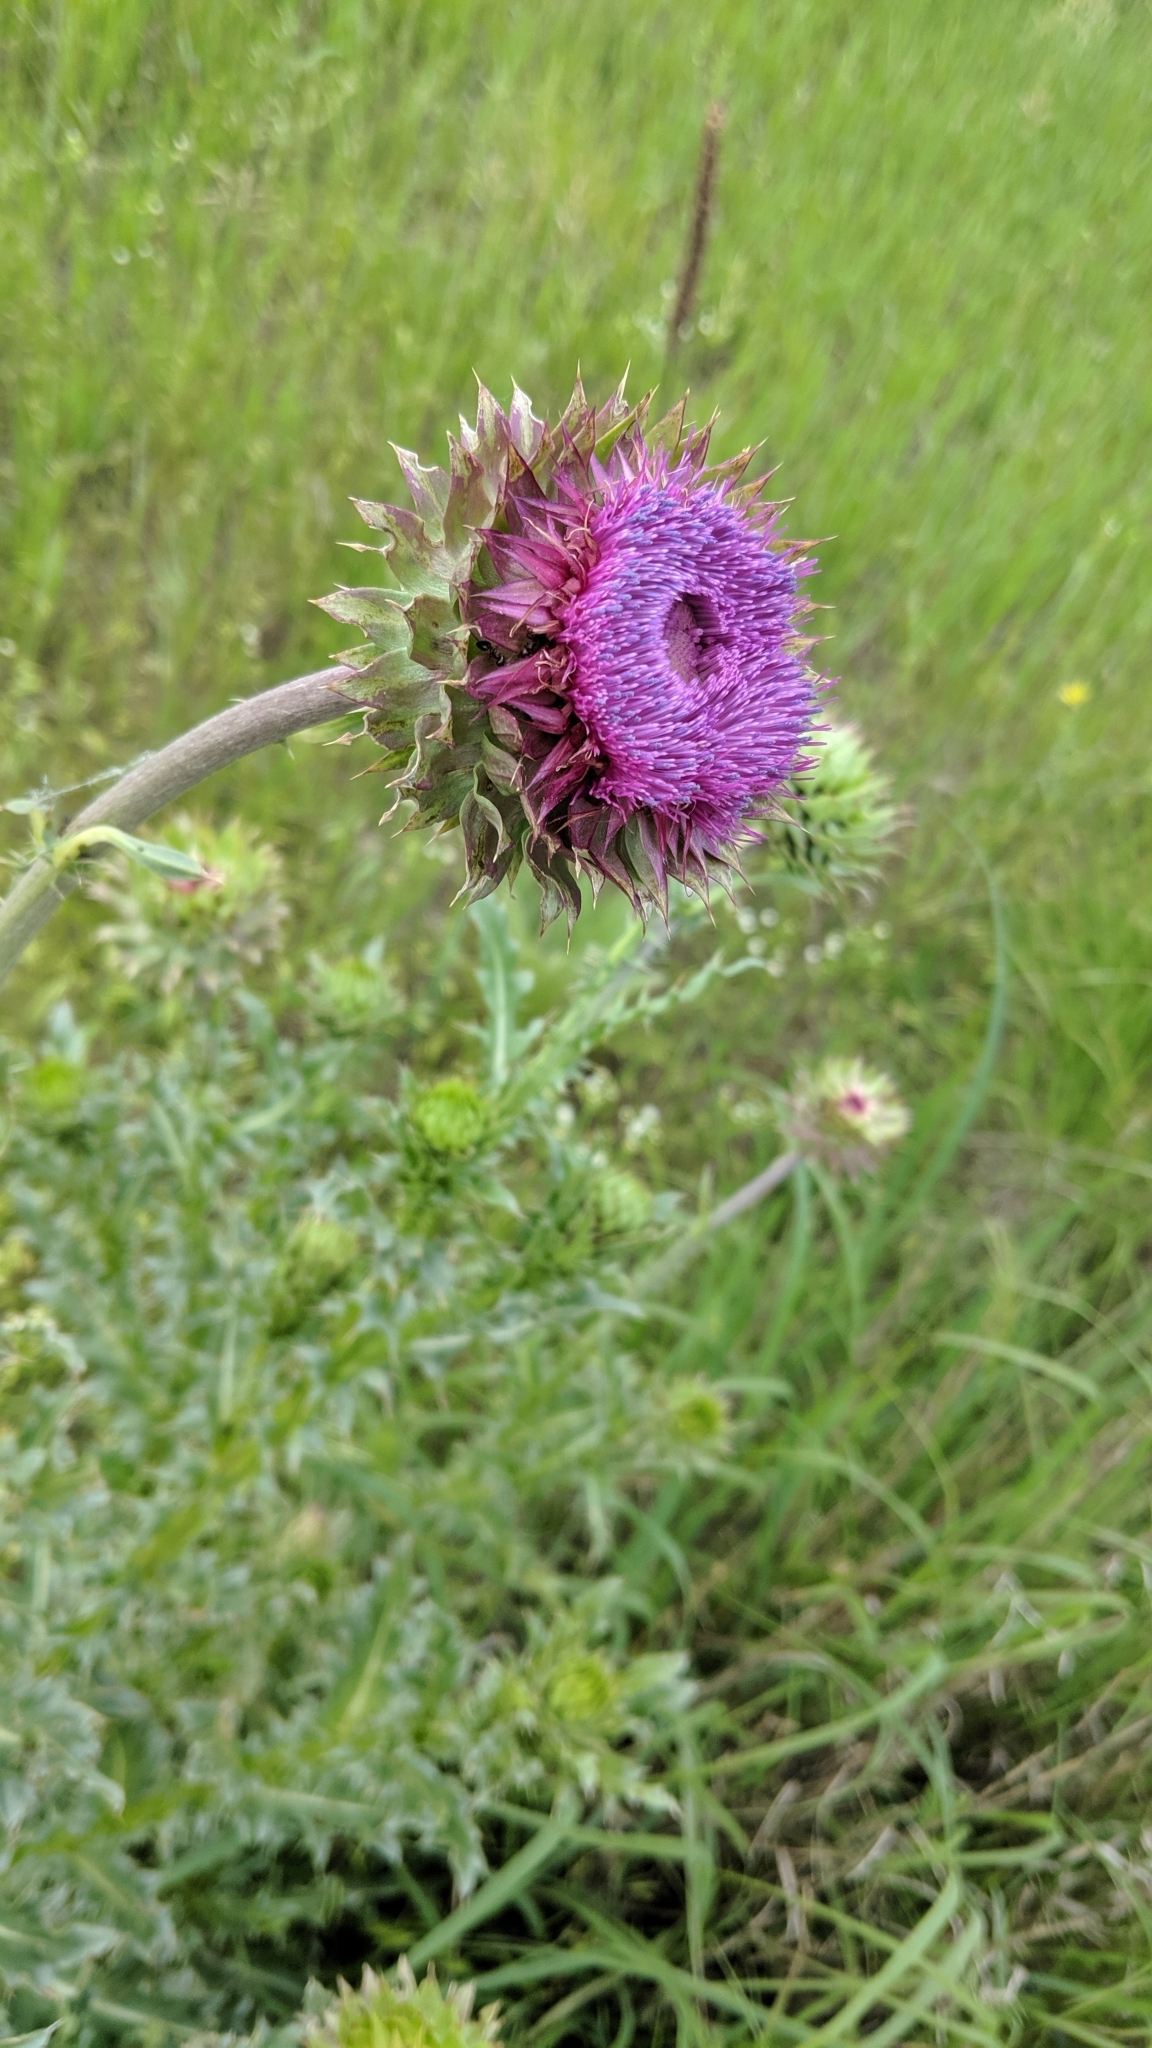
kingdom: Plantae
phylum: Tracheophyta
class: Magnoliopsida
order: Asterales
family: Asteraceae
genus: Carduus
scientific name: Carduus nutans
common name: Musk thistle
